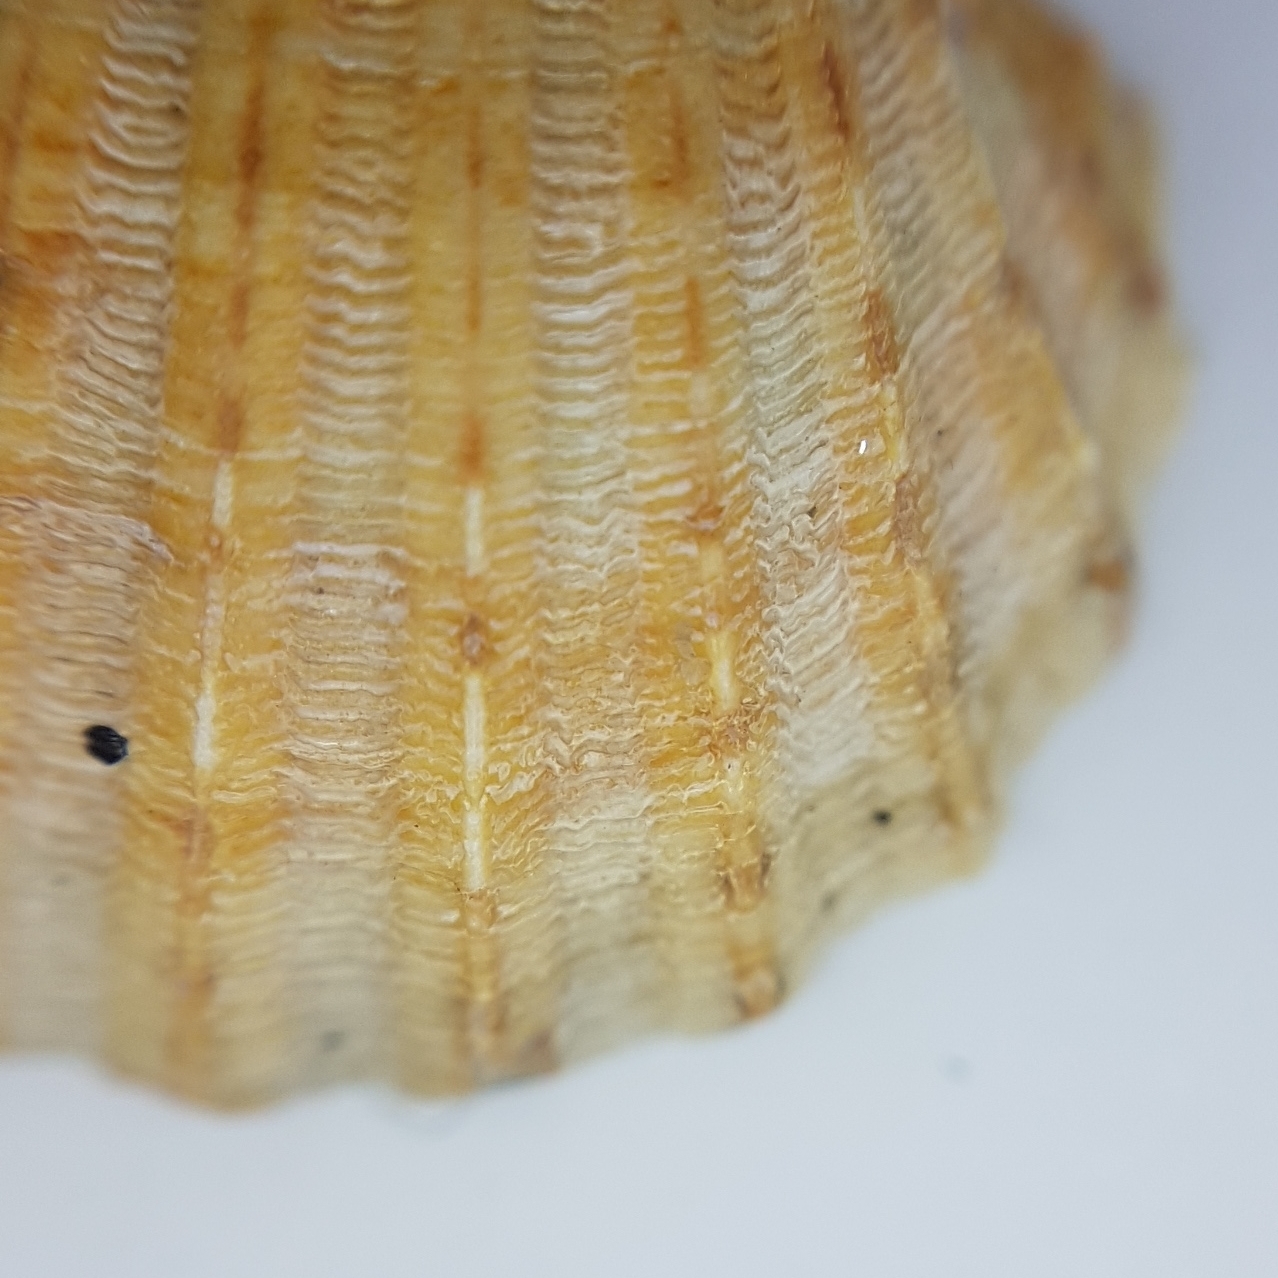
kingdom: Animalia
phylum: Mollusca
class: Bivalvia
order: Cardiida
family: Cardiidae
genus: Acanthocardia
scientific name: Acanthocardia paucicostata
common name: Poorly ribbed cockle
